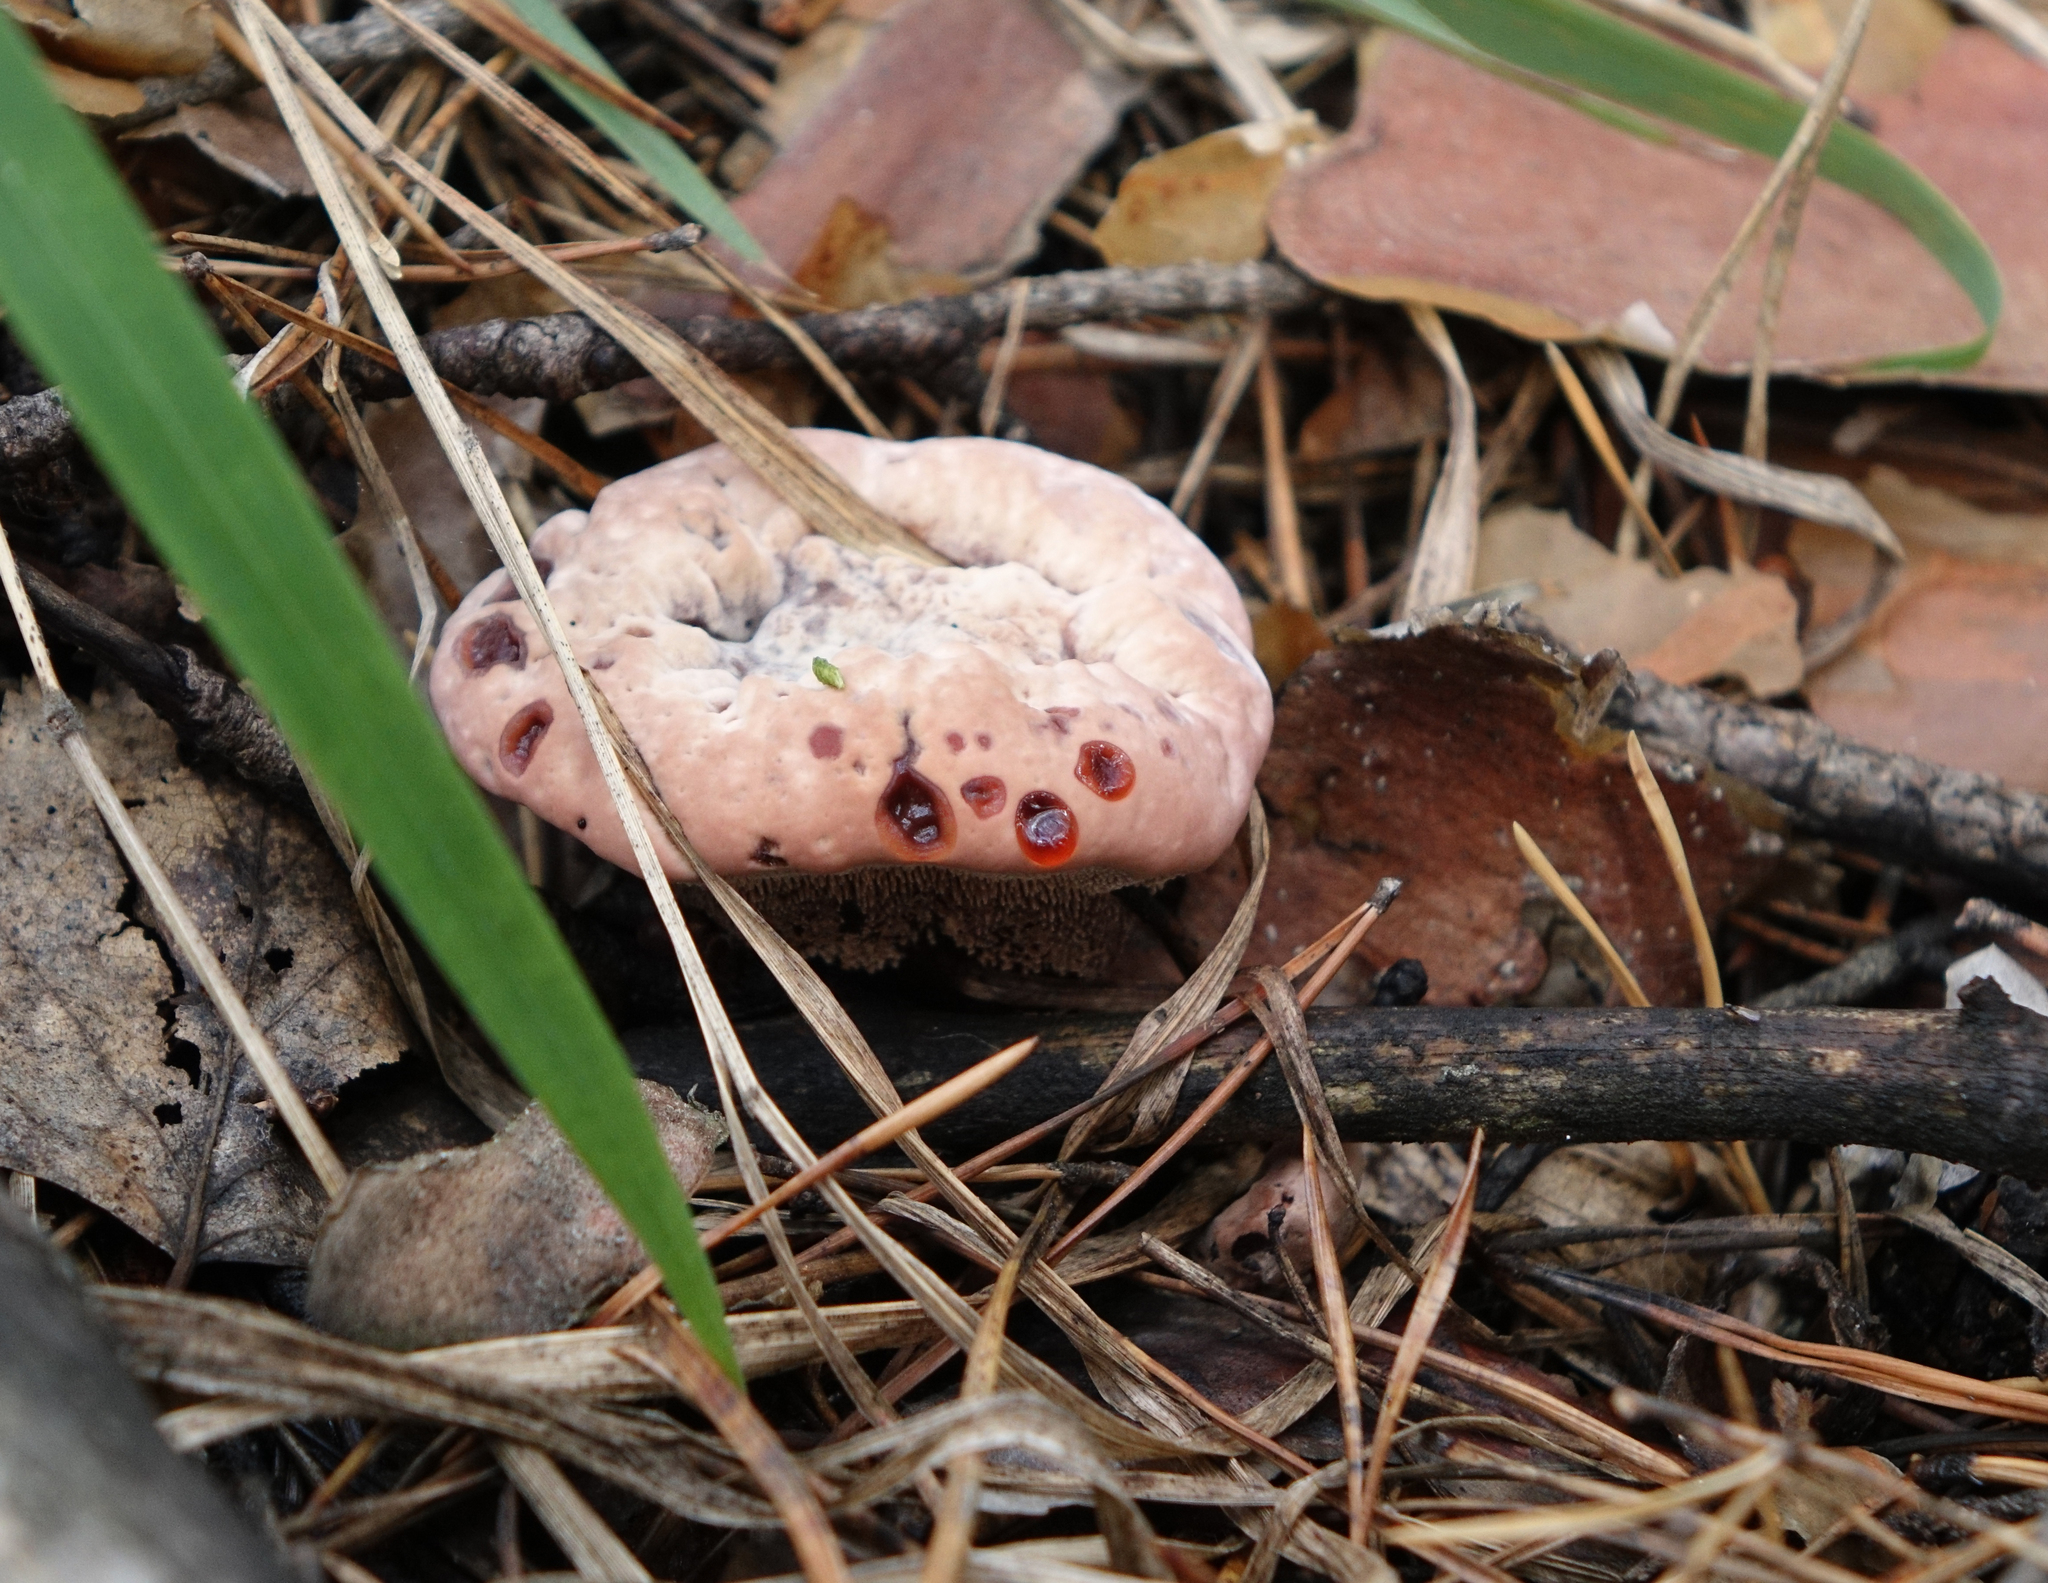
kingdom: Fungi
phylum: Basidiomycota
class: Agaricomycetes
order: Thelephorales
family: Bankeraceae
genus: Hydnellum
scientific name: Hydnellum peckii
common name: Devil's tooth
